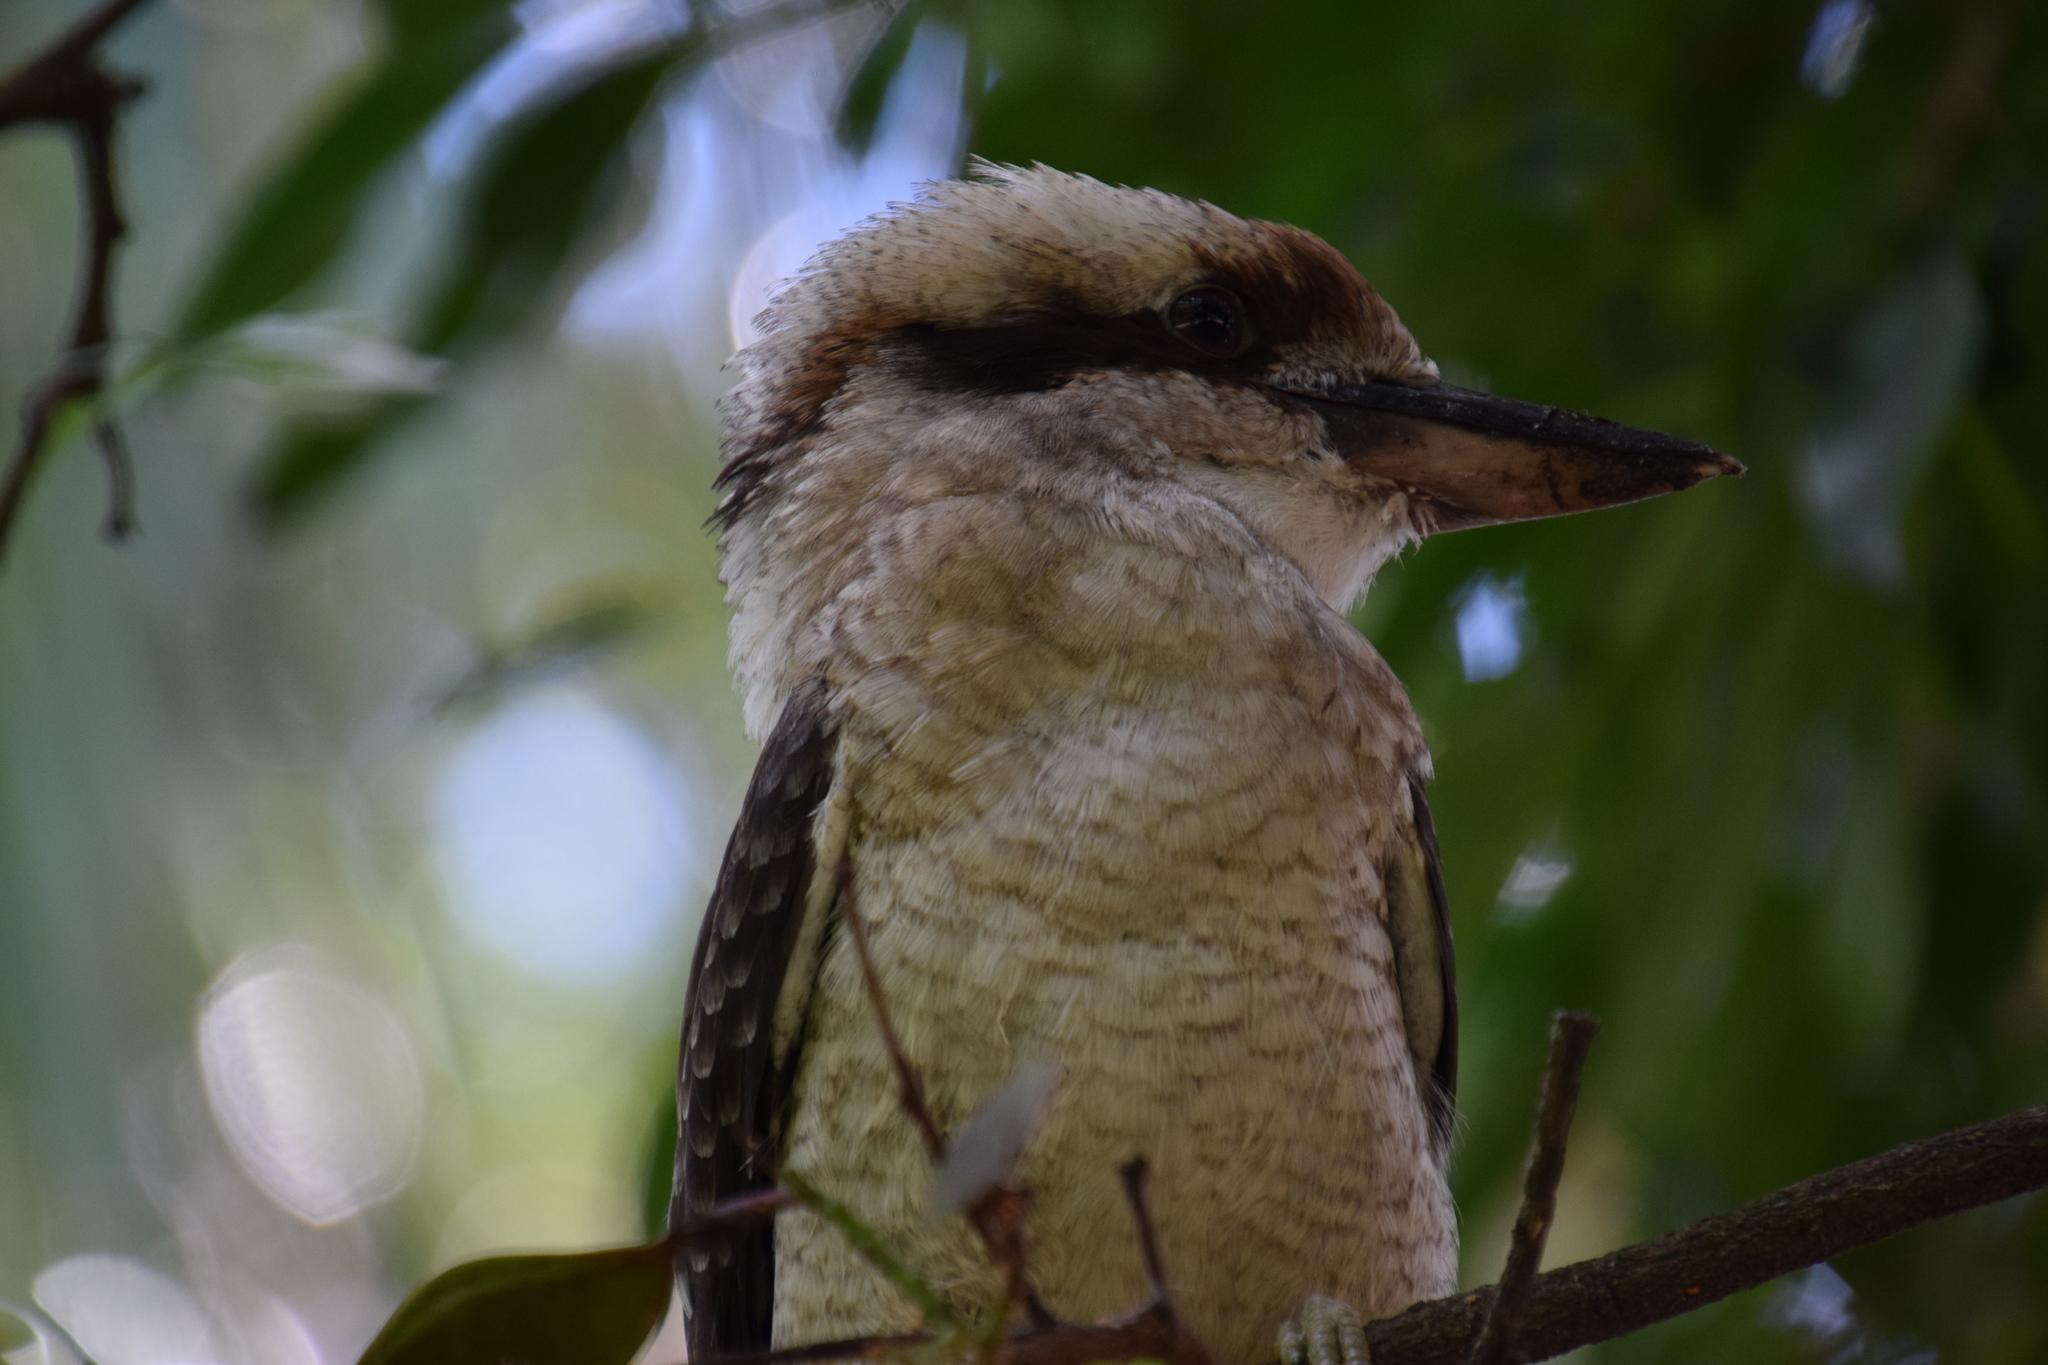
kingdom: Animalia
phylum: Chordata
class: Aves
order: Coraciiformes
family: Alcedinidae
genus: Dacelo
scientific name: Dacelo novaeguineae
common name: Laughing kookaburra
